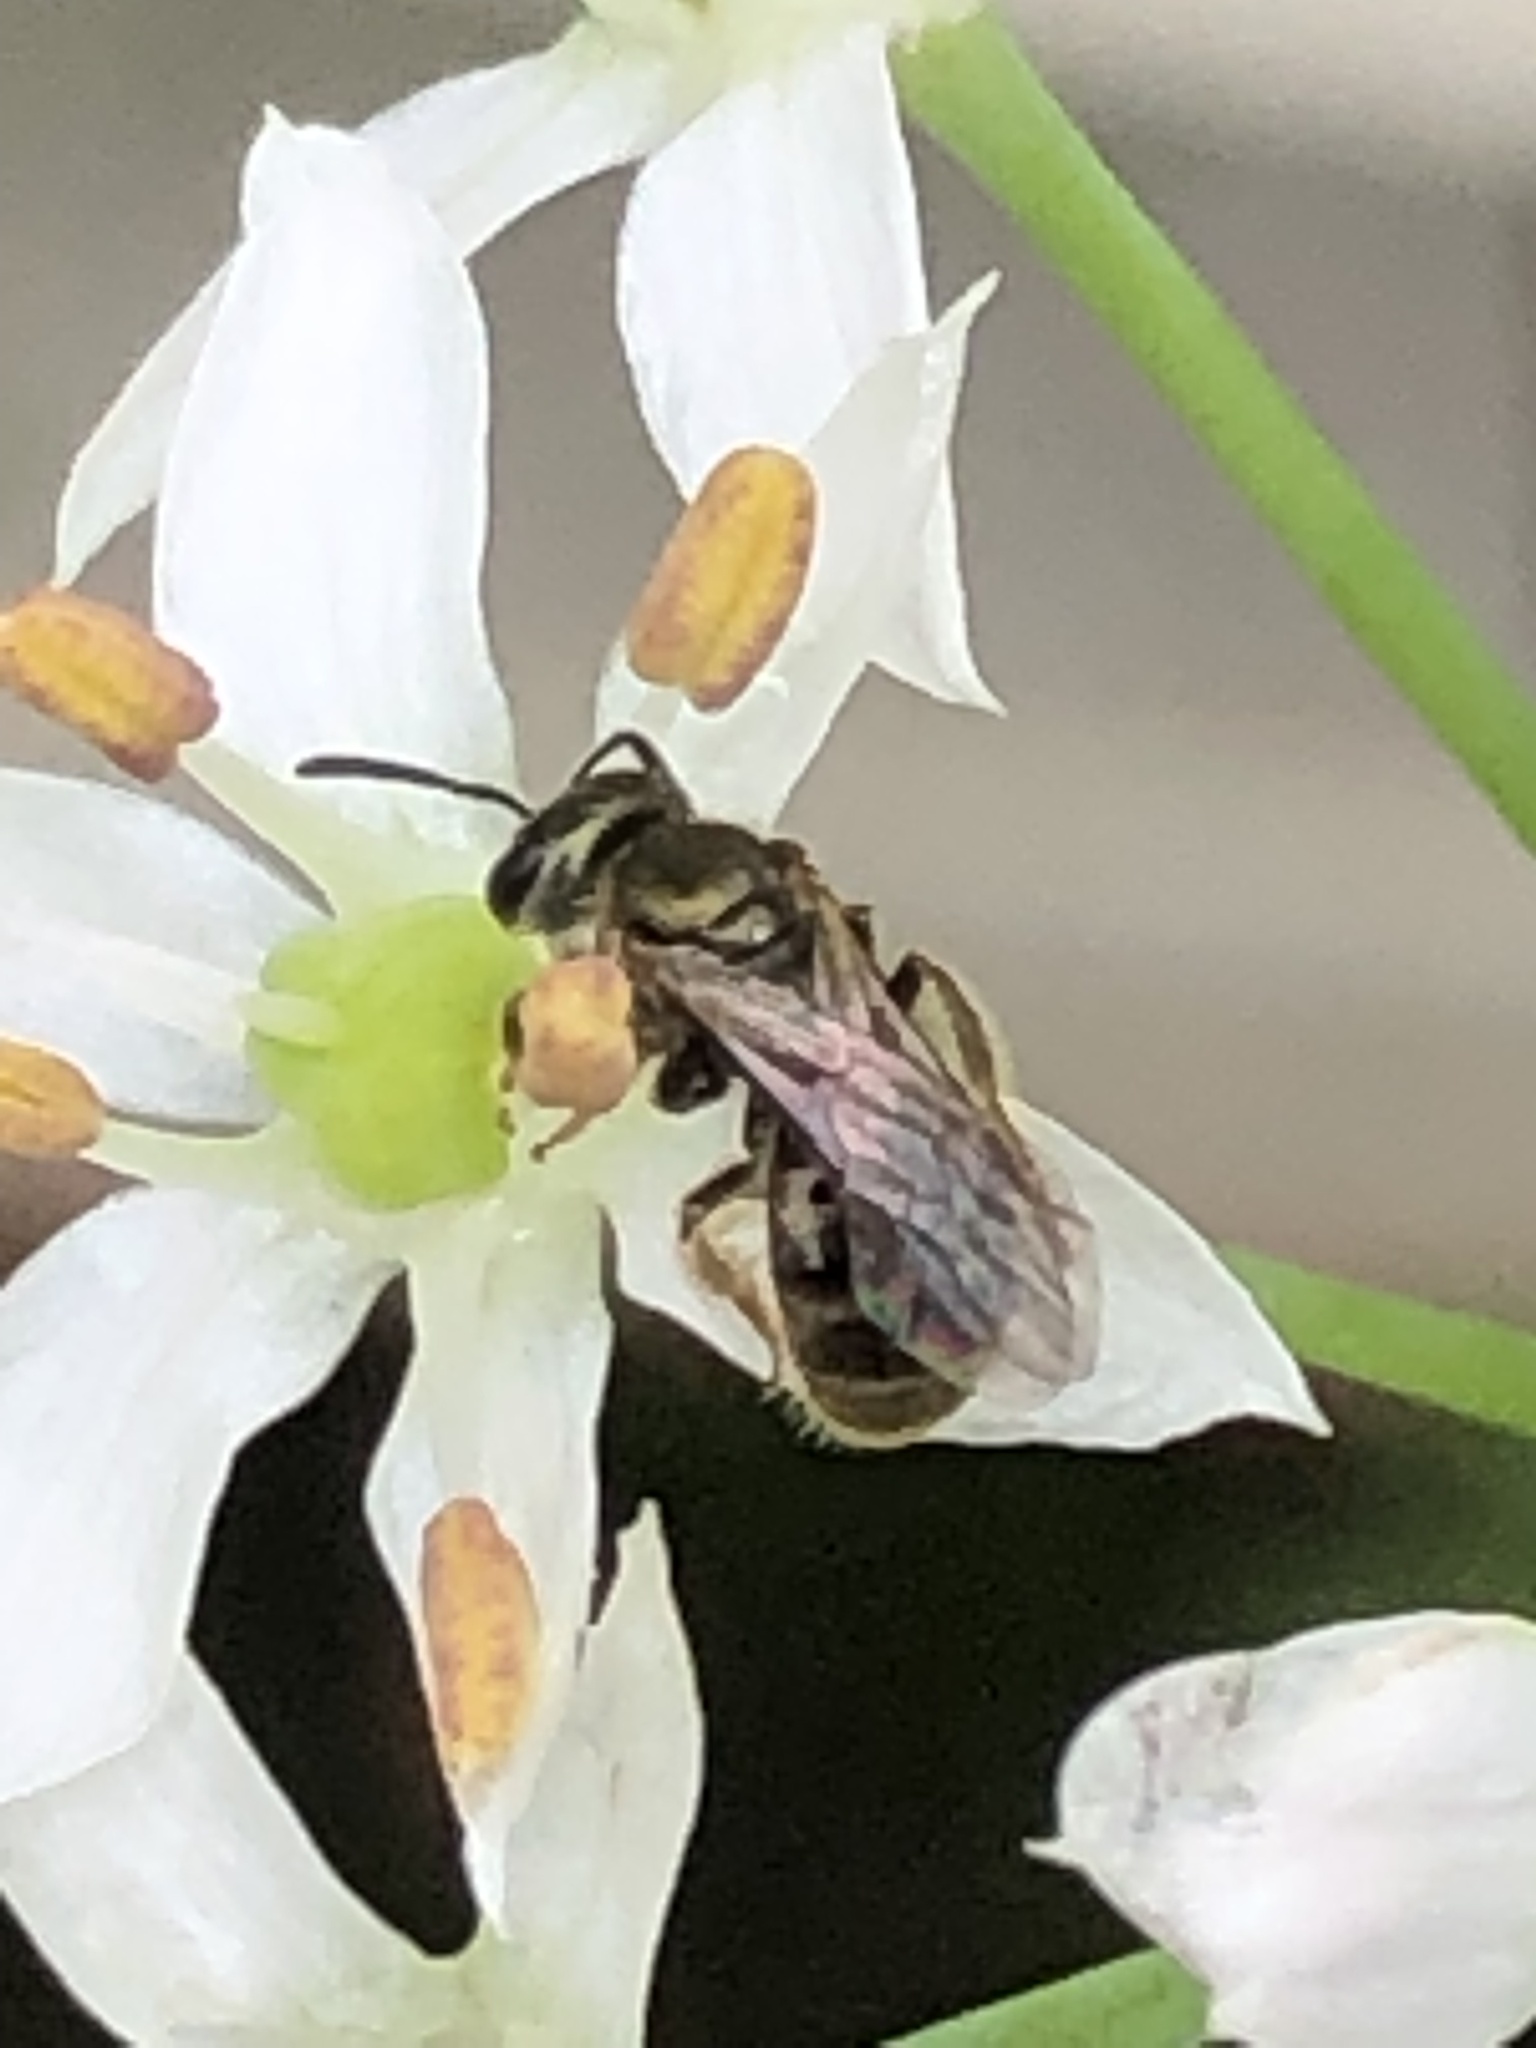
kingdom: Animalia
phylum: Arthropoda
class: Insecta
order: Hymenoptera
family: Halictidae
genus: Dialictus
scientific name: Dialictus
